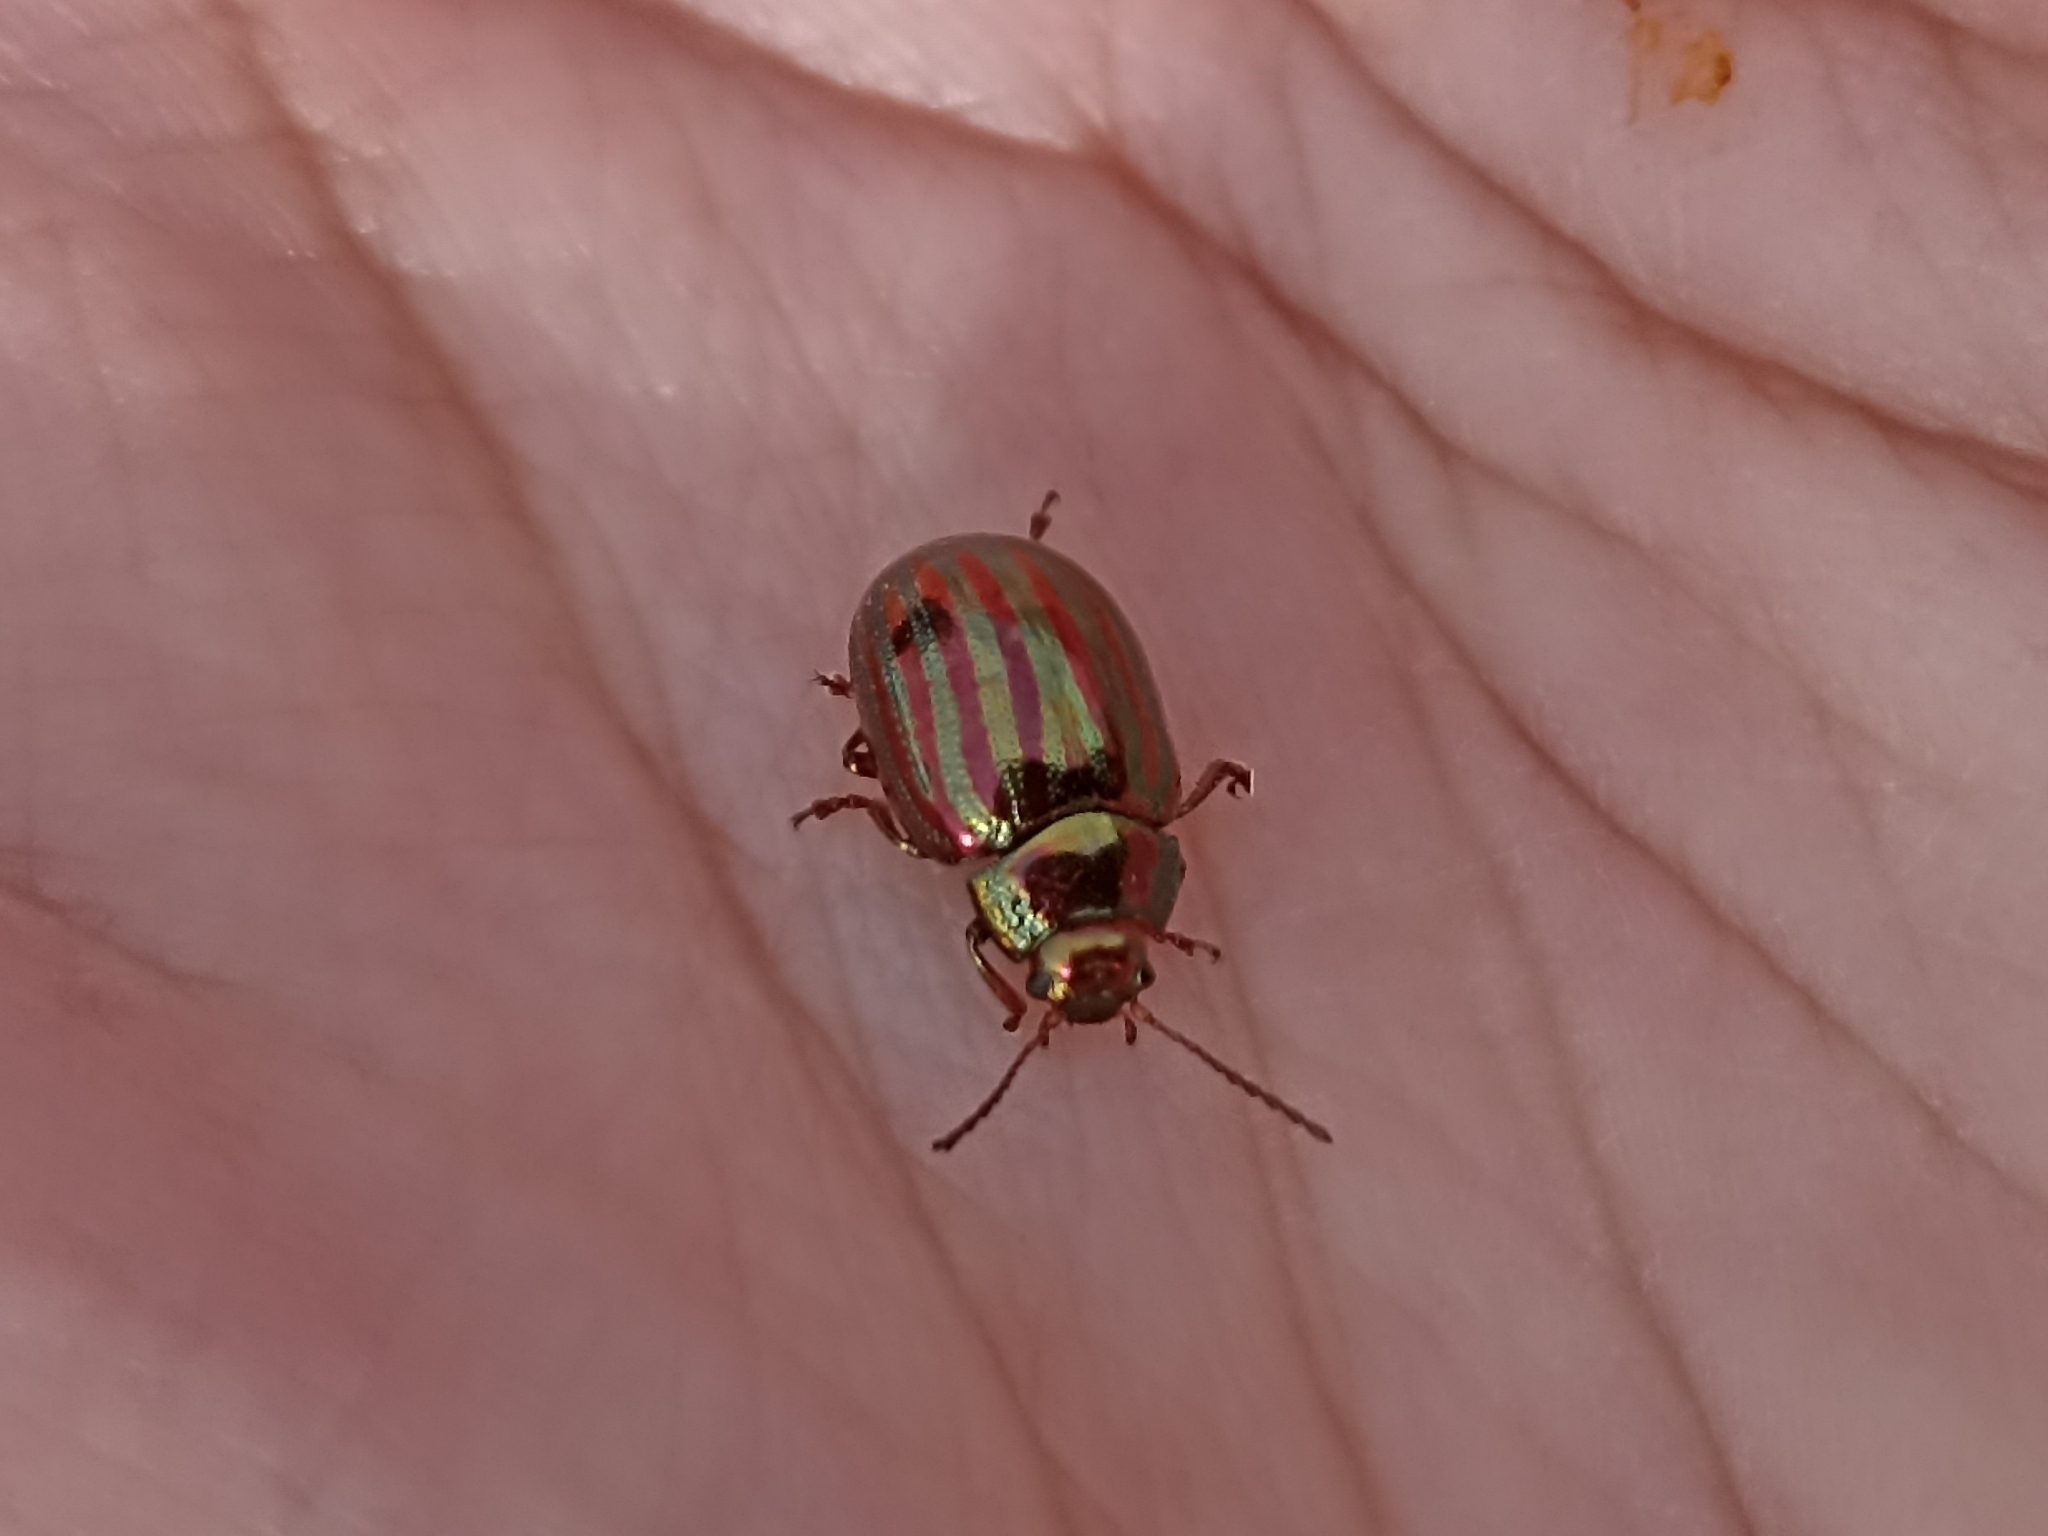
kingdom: Animalia
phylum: Arthropoda
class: Insecta
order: Coleoptera
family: Chrysomelidae
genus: Chrysolina
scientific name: Chrysolina americana
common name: Rosemary beetle
